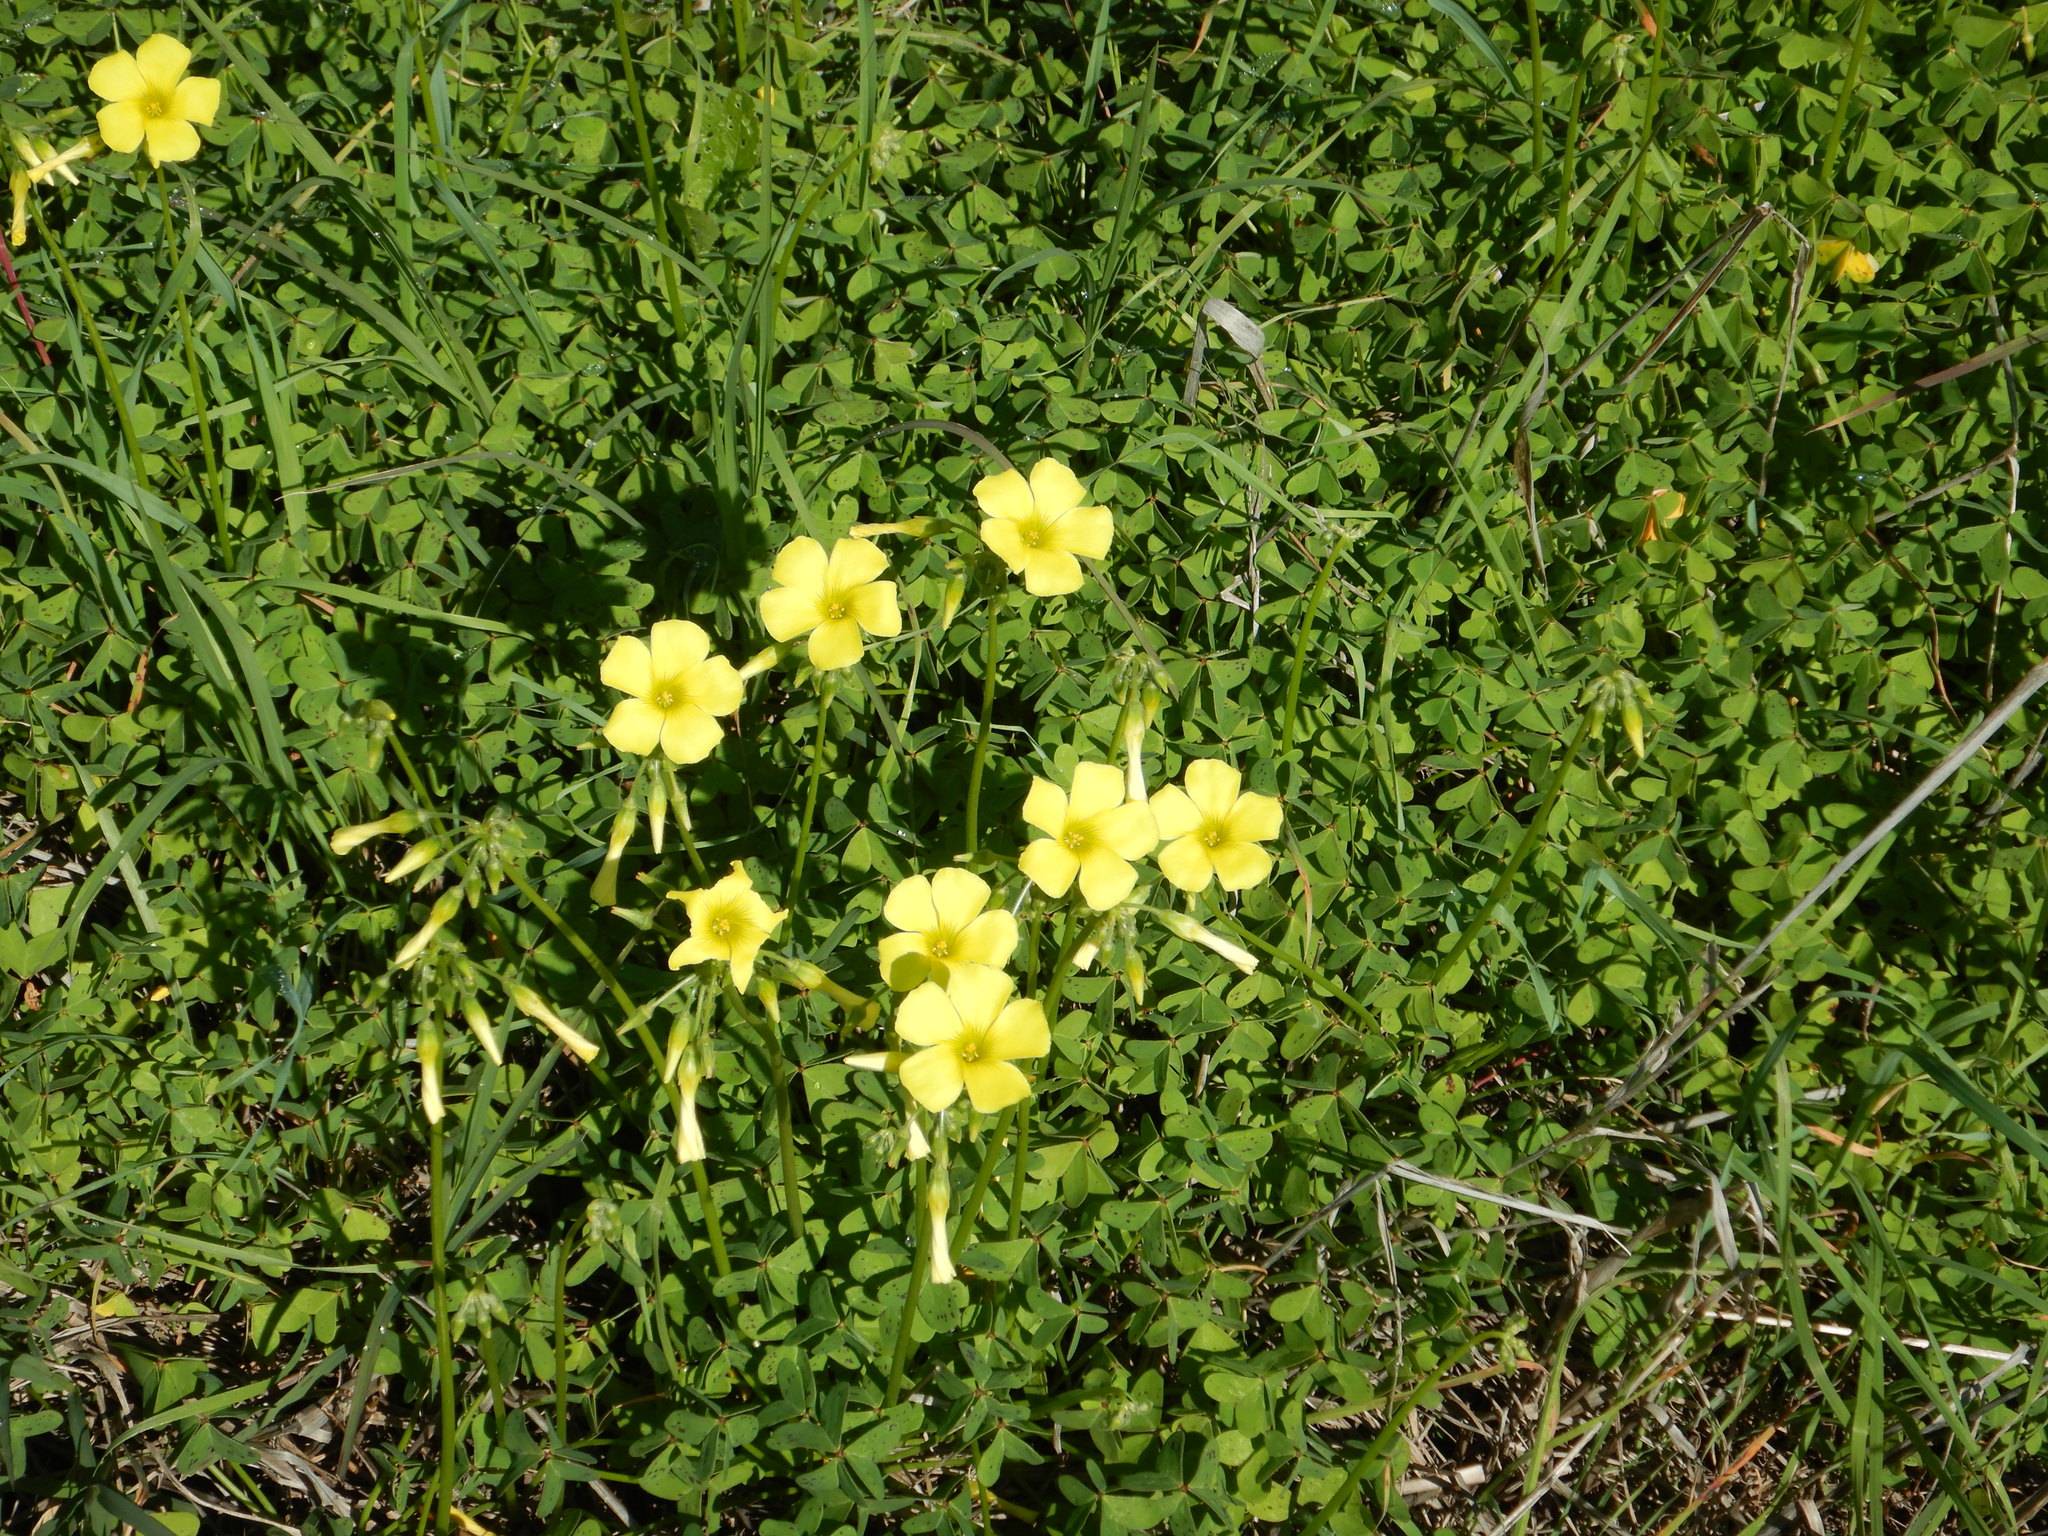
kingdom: Plantae
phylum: Tracheophyta
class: Magnoliopsida
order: Oxalidales
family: Oxalidaceae
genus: Oxalis
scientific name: Oxalis pes-caprae
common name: Bermuda-buttercup
